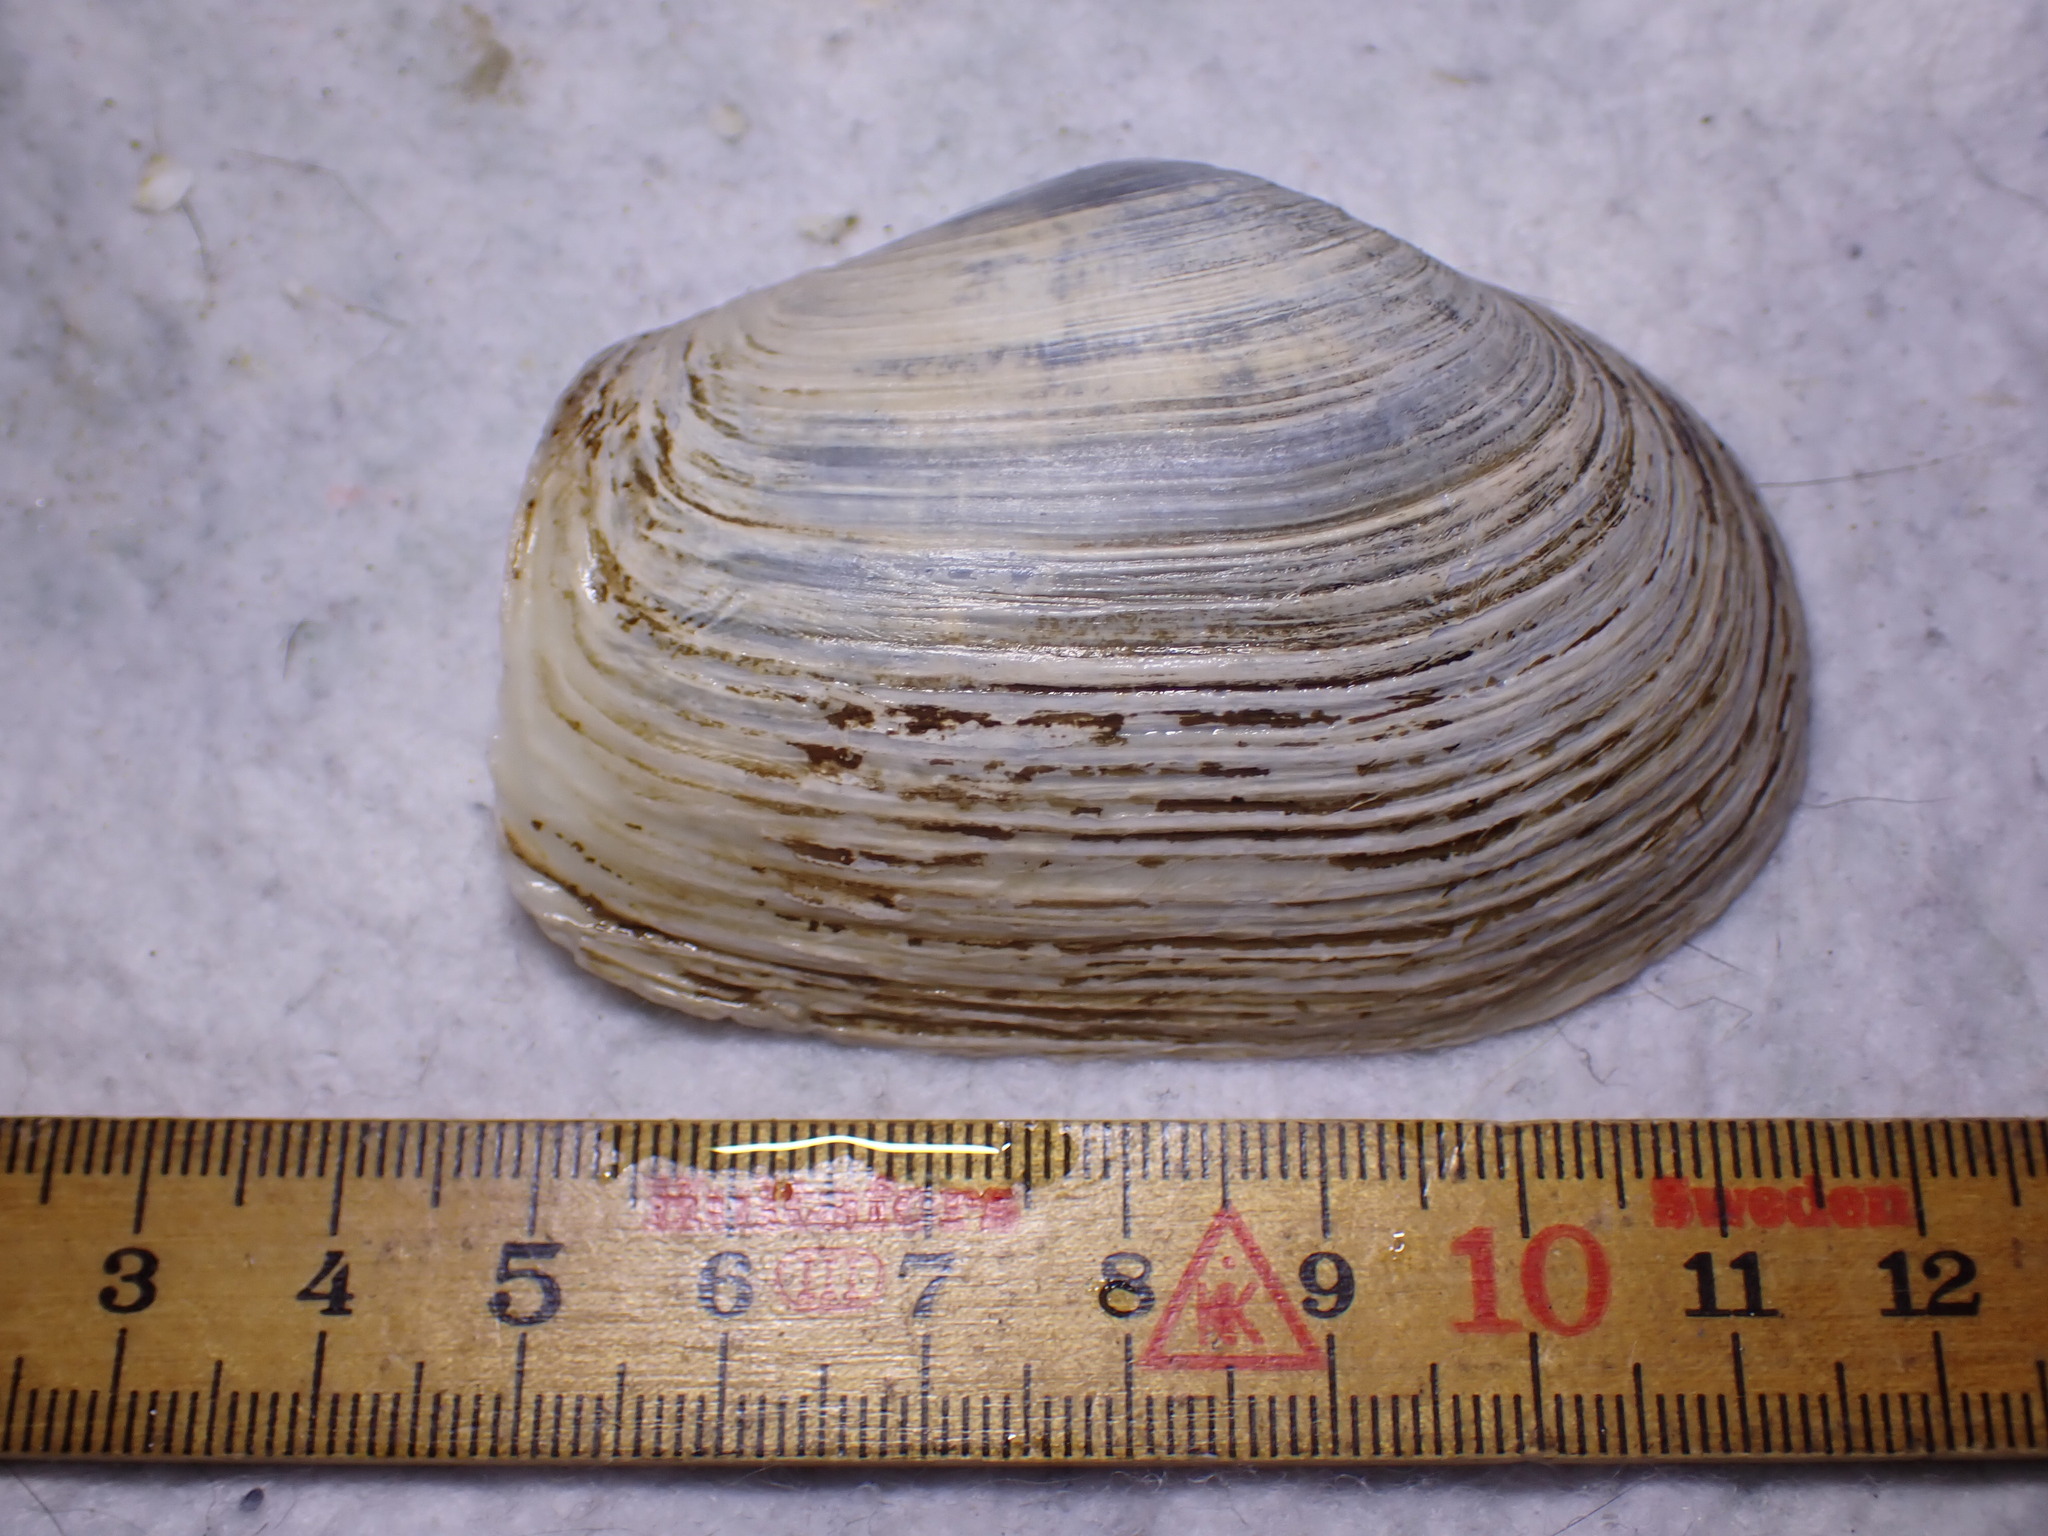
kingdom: Animalia
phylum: Mollusca
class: Bivalvia
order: Myida
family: Myidae
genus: Mya
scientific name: Mya truncata
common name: Blunt gaper
